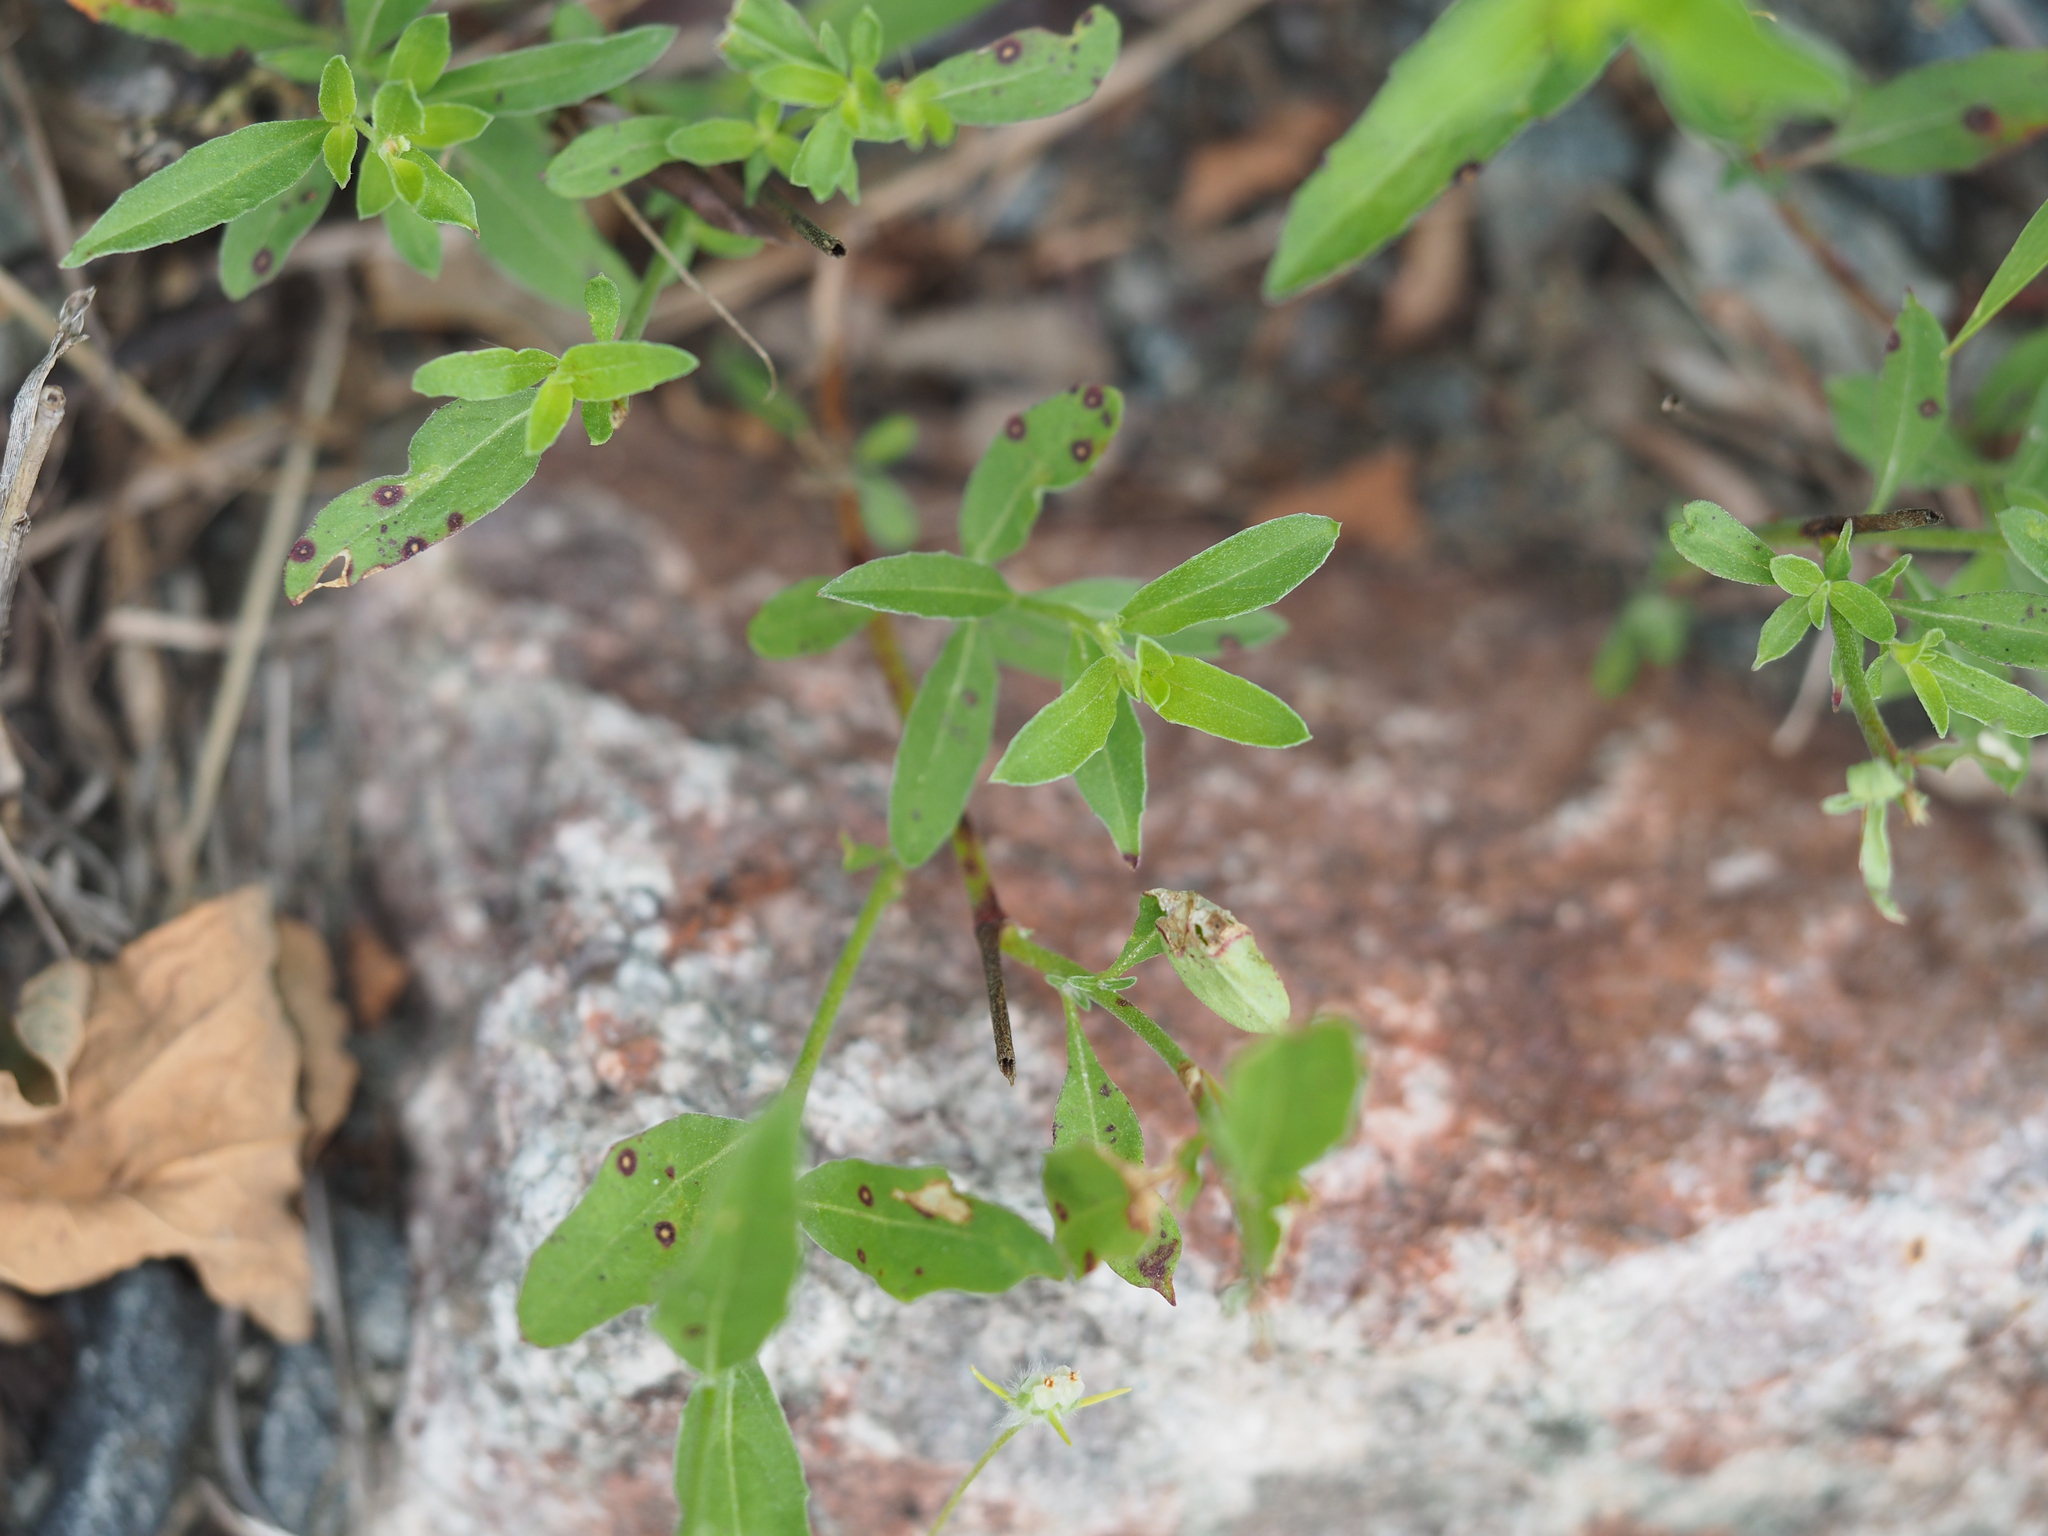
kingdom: Plantae
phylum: Tracheophyta
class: Magnoliopsida
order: Myrtales
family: Onagraceae
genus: Oenothera
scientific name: Oenothera speciosa
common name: White evening-primrose
